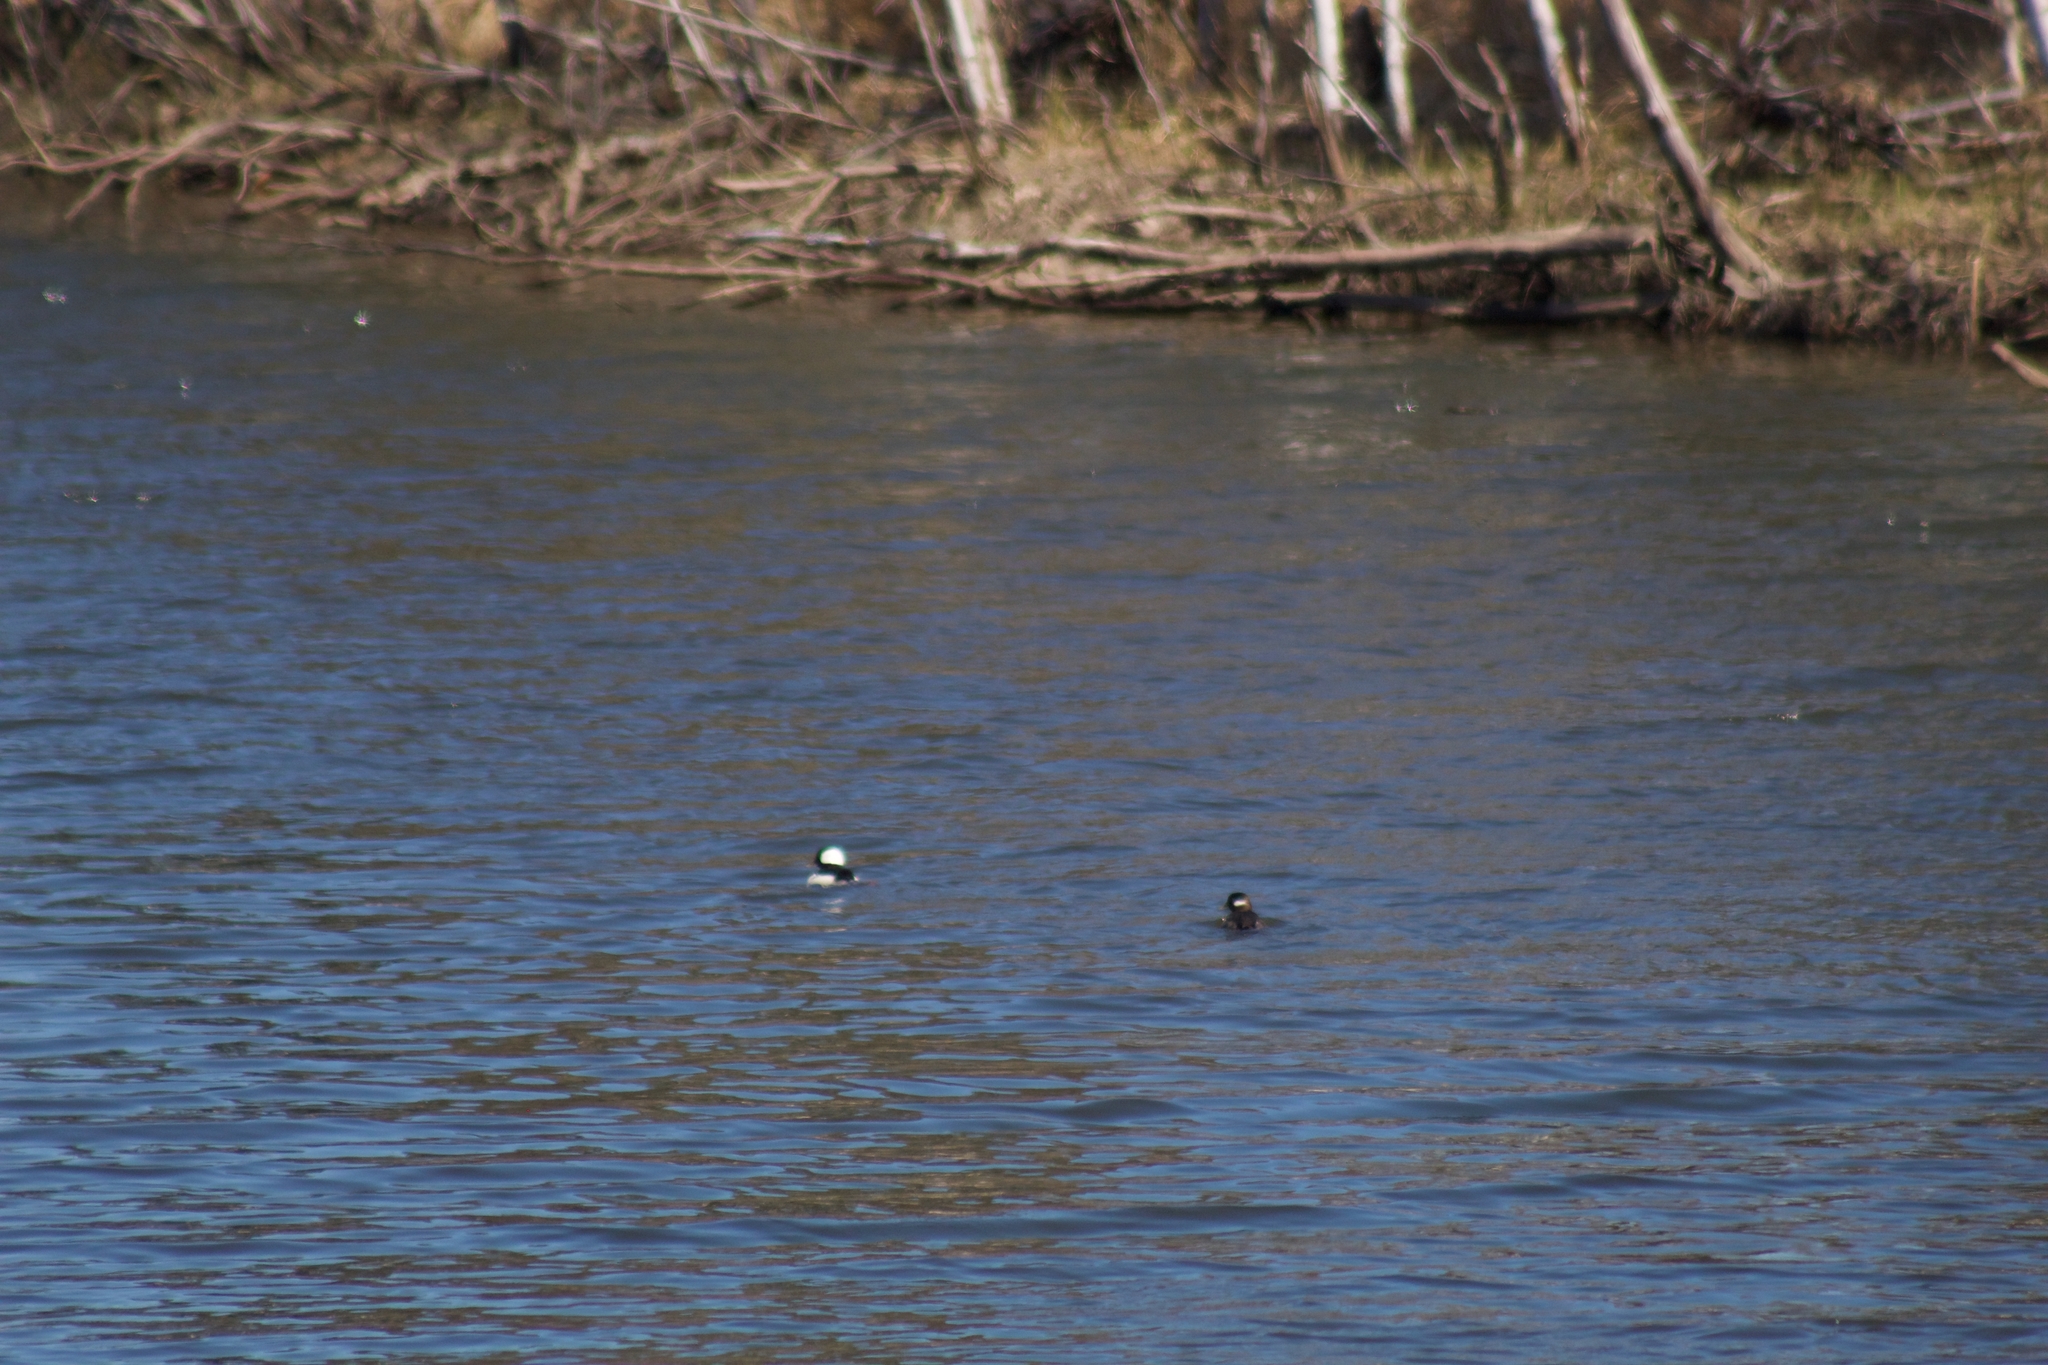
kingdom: Animalia
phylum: Chordata
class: Aves
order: Anseriformes
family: Anatidae
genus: Bucephala
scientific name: Bucephala albeola
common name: Bufflehead
